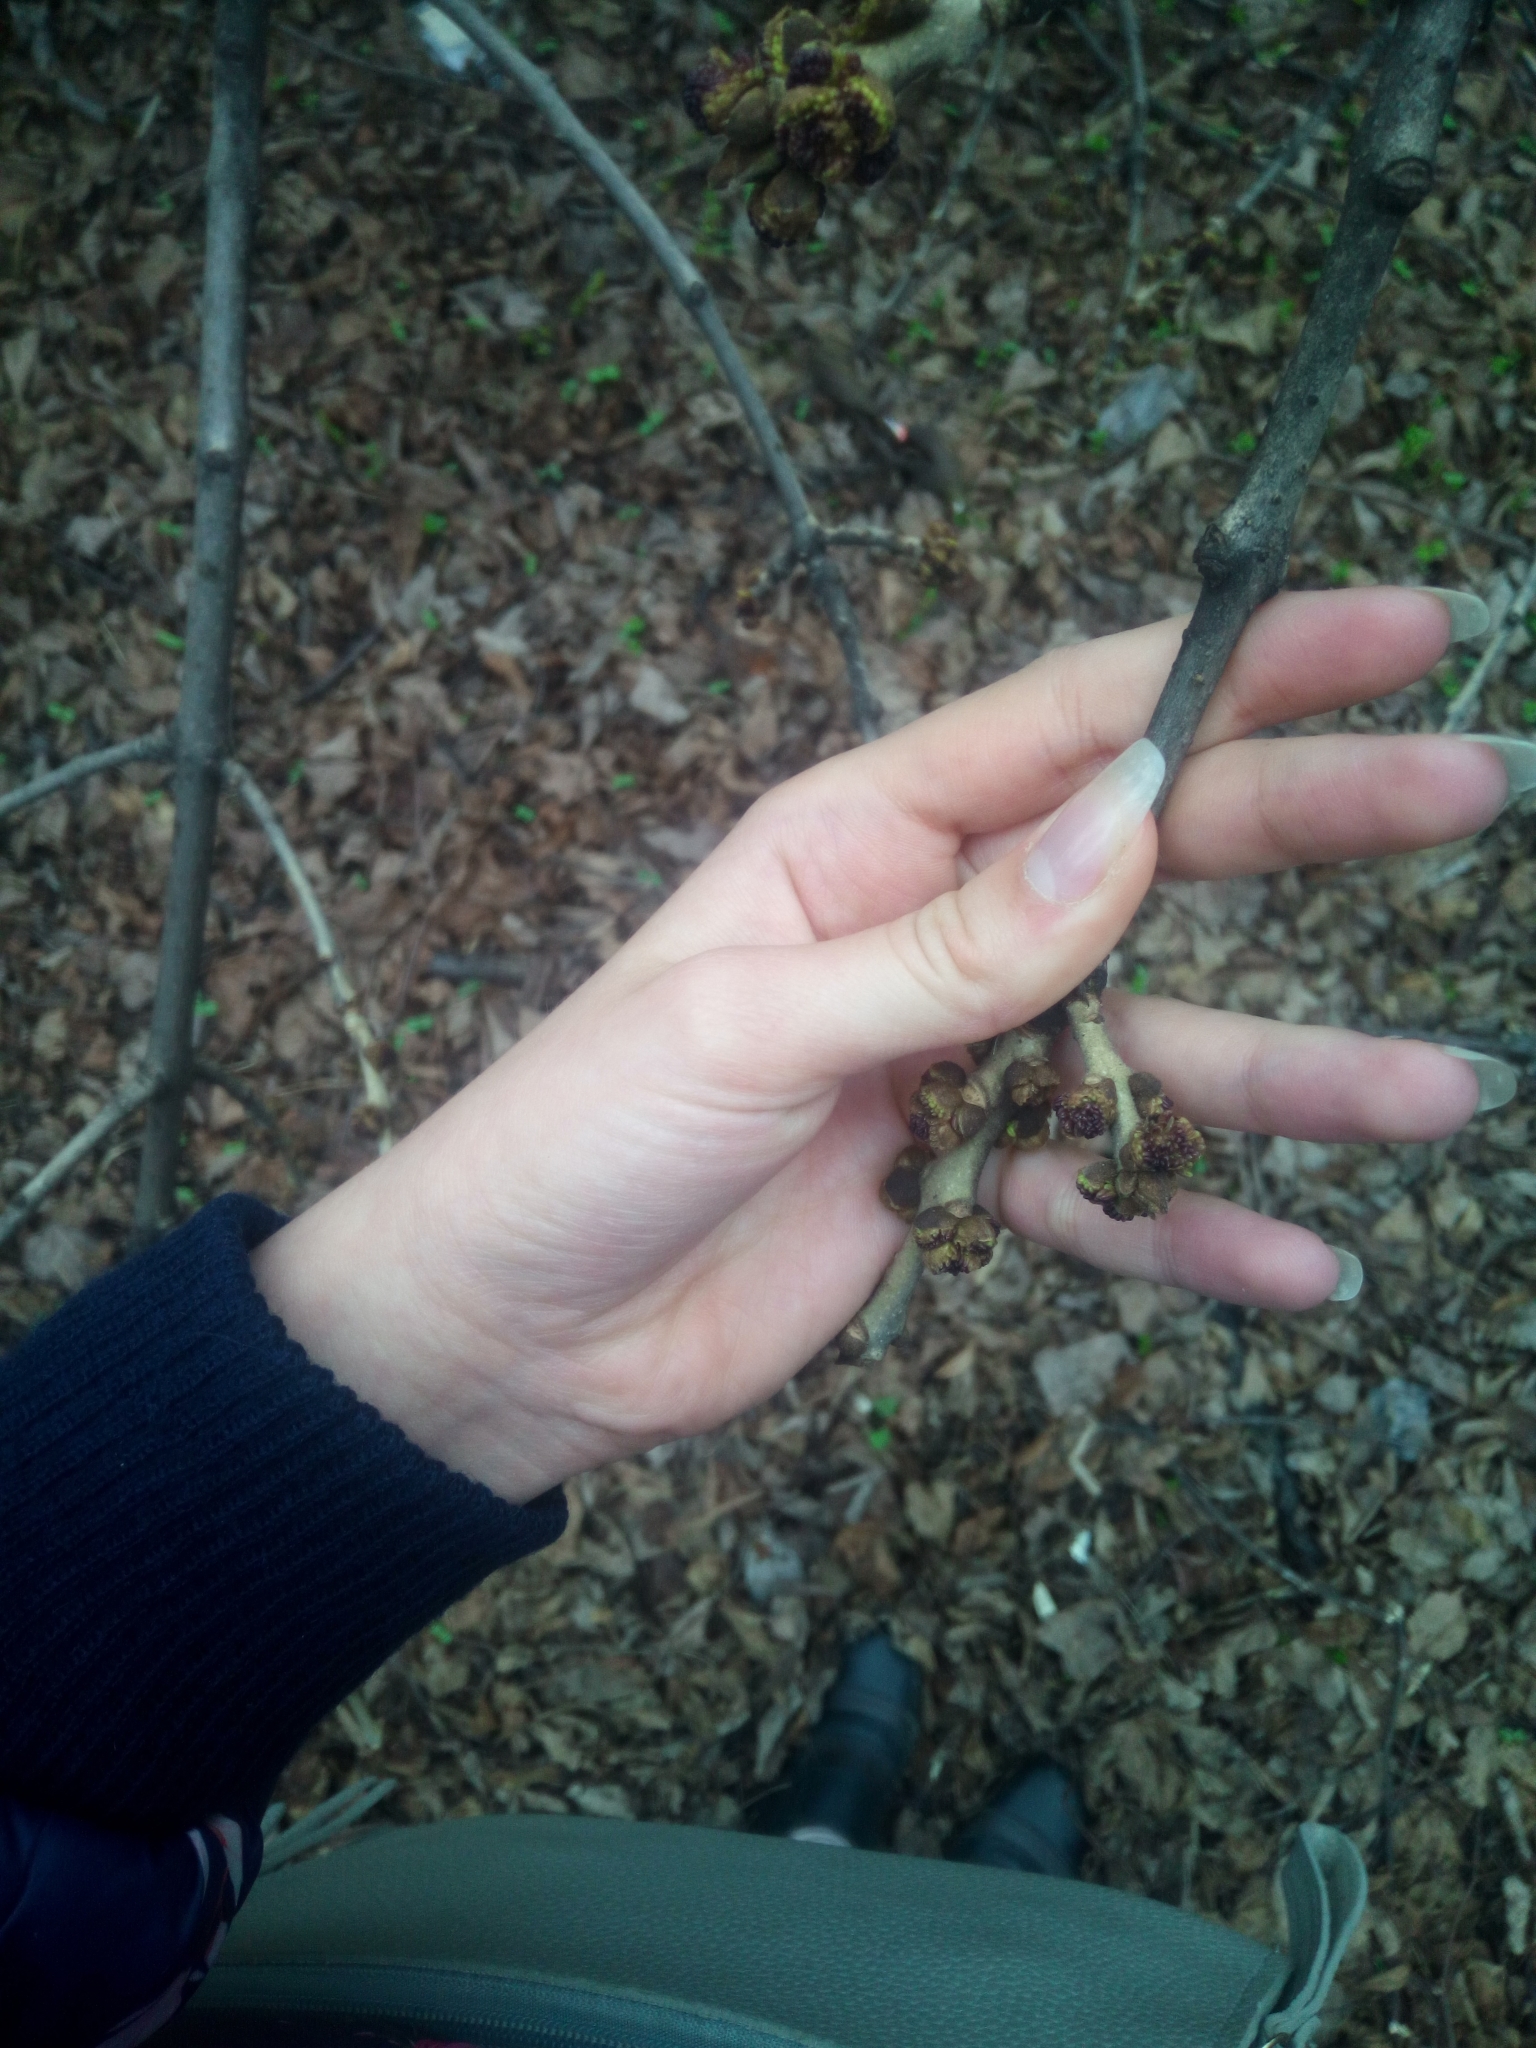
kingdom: Plantae
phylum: Tracheophyta
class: Magnoliopsida
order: Lamiales
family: Oleaceae
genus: Fraxinus
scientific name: Fraxinus pennsylvanica
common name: Green ash
